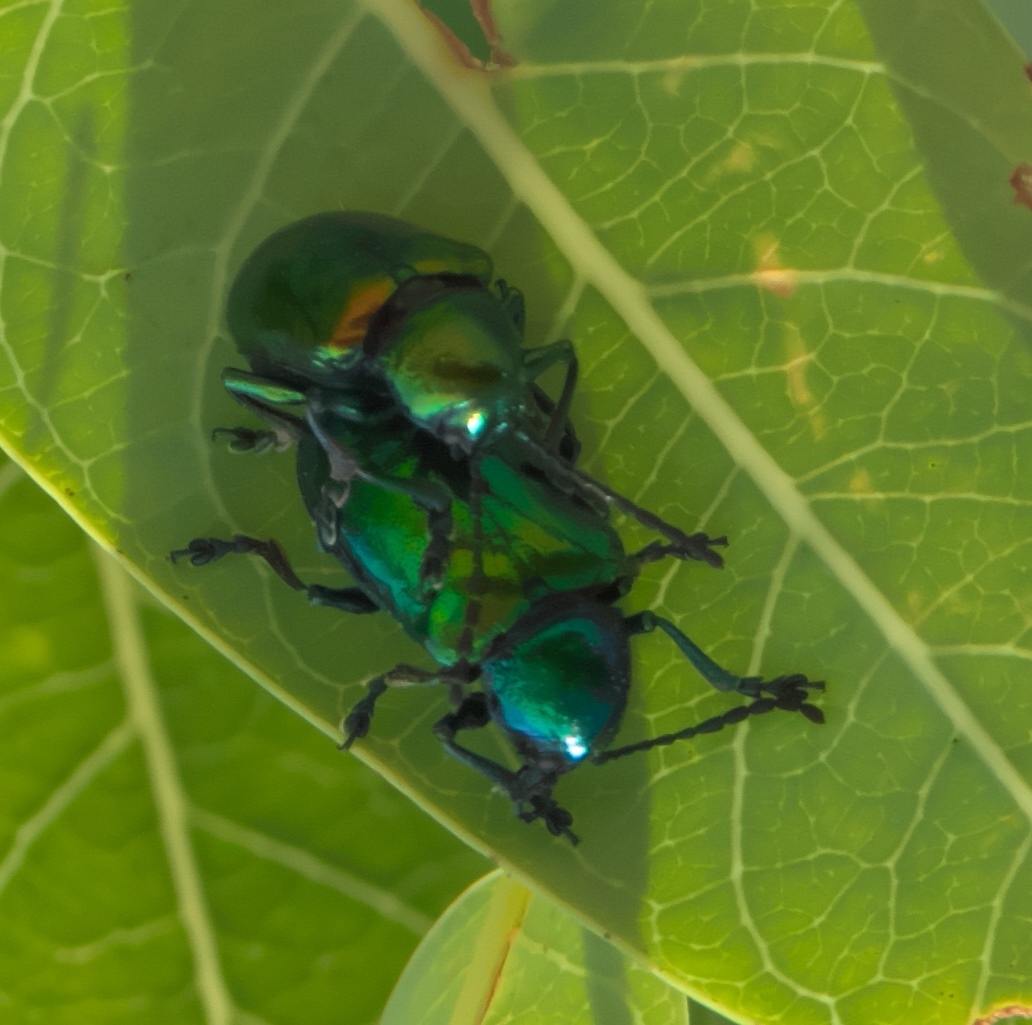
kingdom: Animalia
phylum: Arthropoda
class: Insecta
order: Coleoptera
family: Chrysomelidae
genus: Chrysochus
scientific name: Chrysochus auratus
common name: Dogbane leaf beetle
